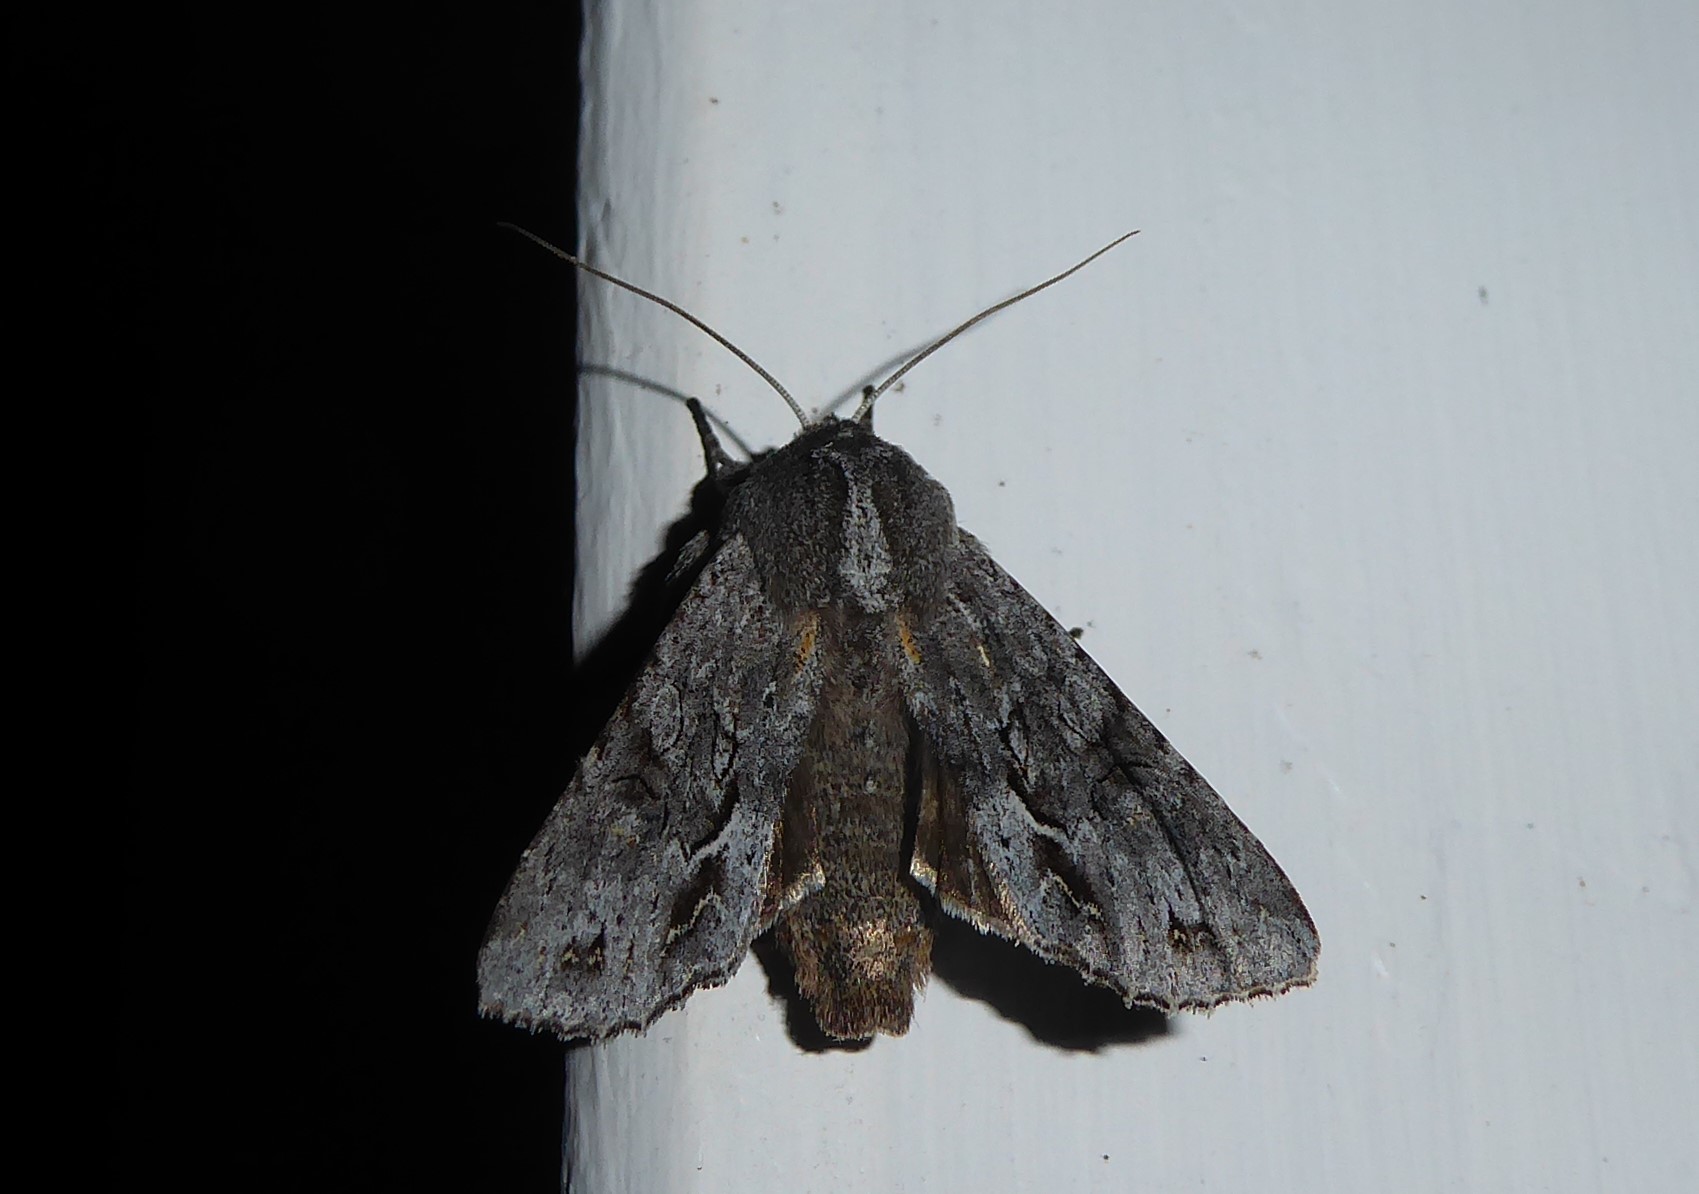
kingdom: Animalia
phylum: Arthropoda
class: Insecta
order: Lepidoptera
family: Noctuidae
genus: Ichneutica
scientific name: Ichneutica
